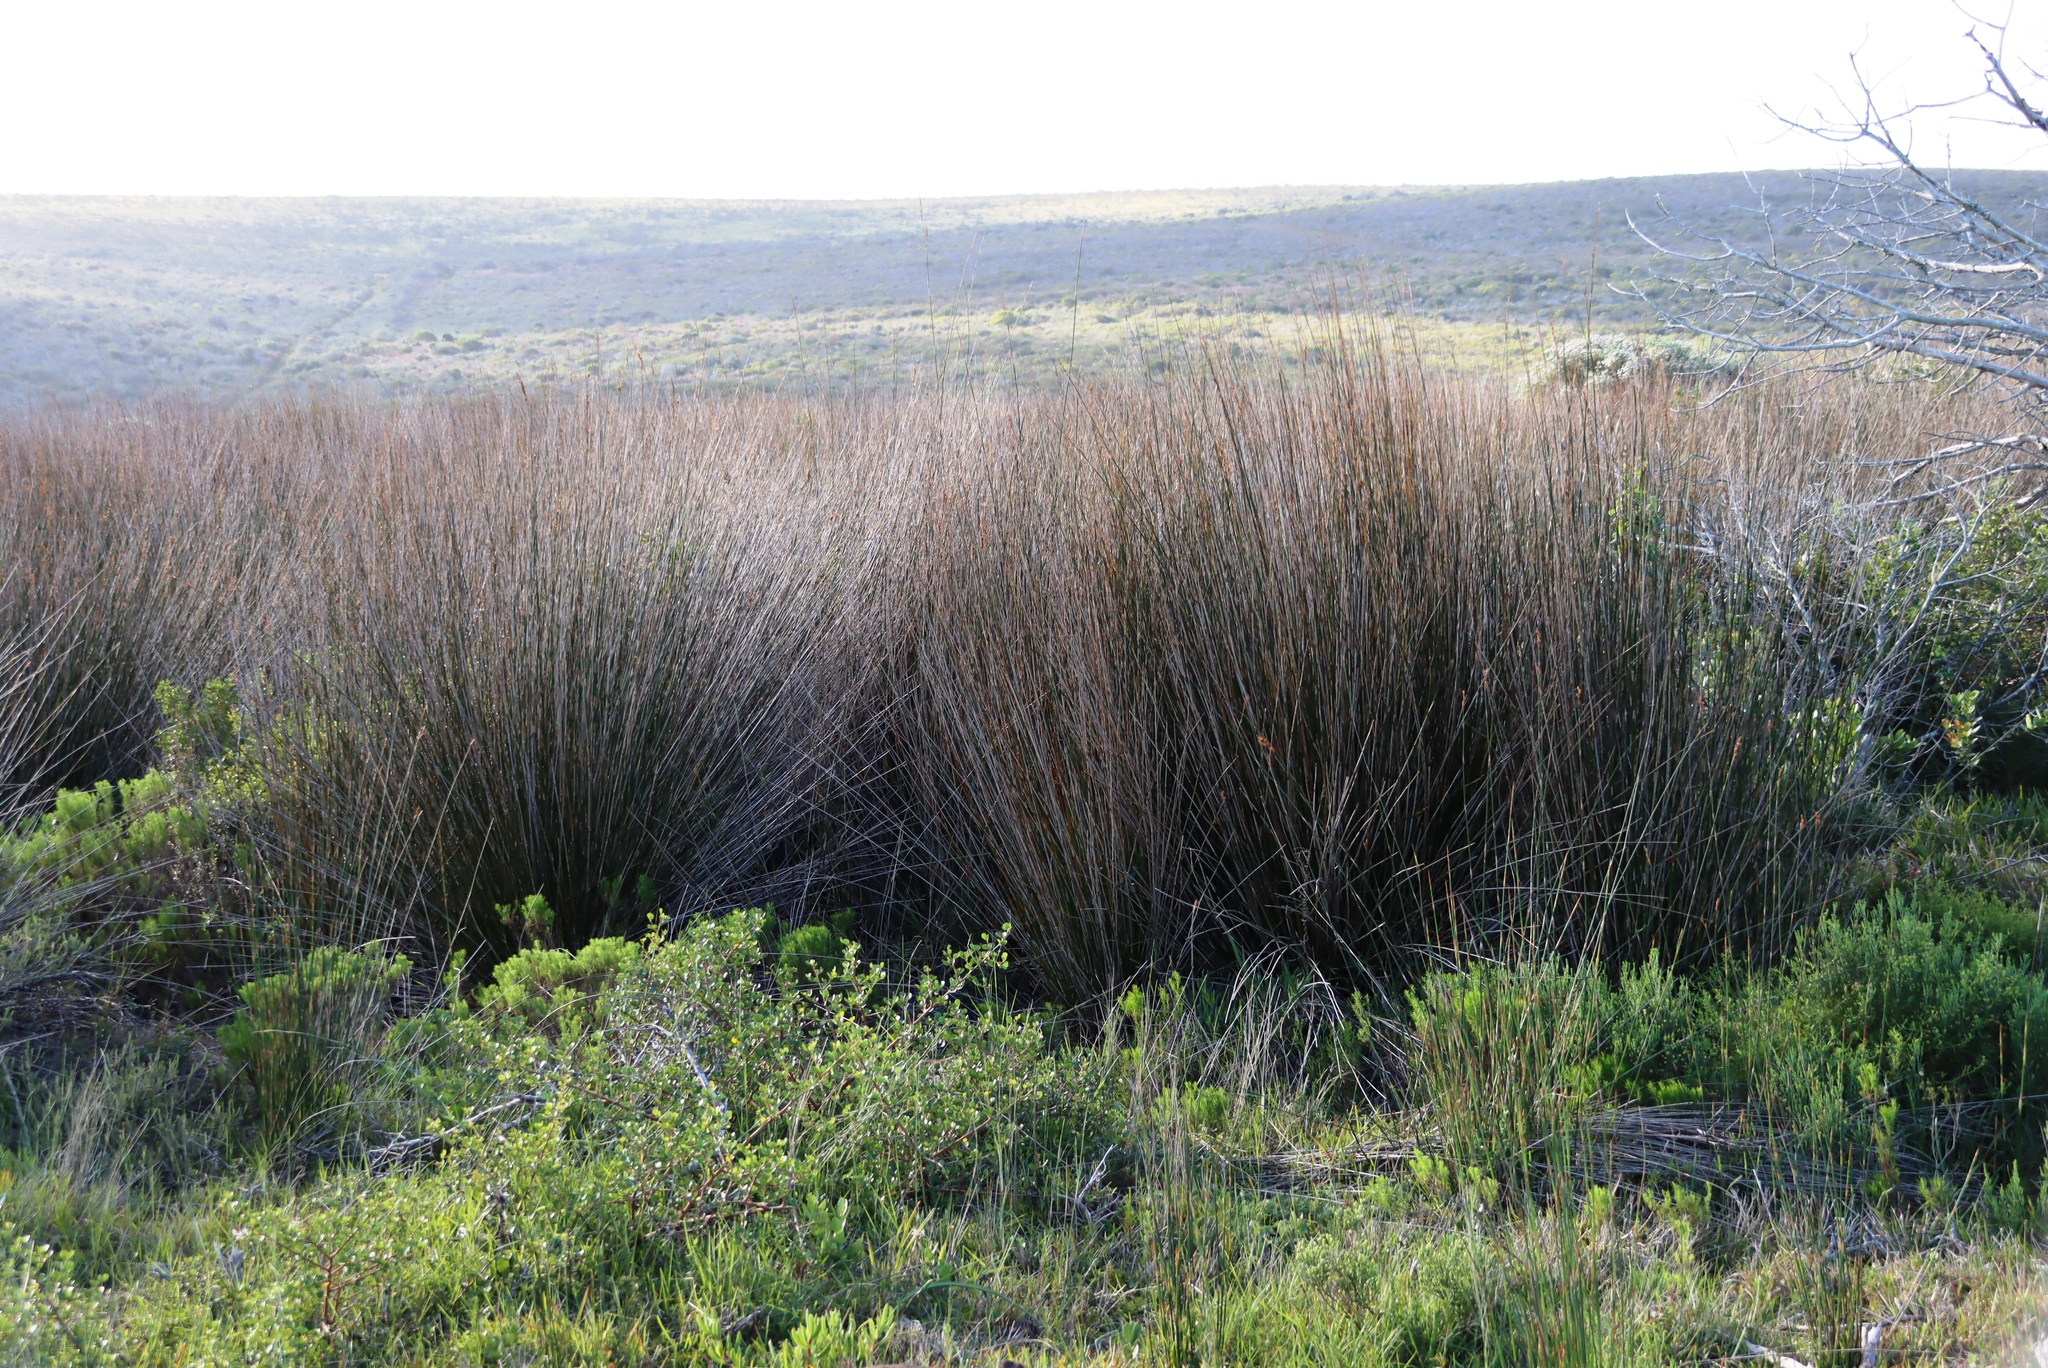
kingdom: Plantae
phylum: Tracheophyta
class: Liliopsida
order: Poales
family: Restionaceae
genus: Thamnochortus
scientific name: Thamnochortus insignis
